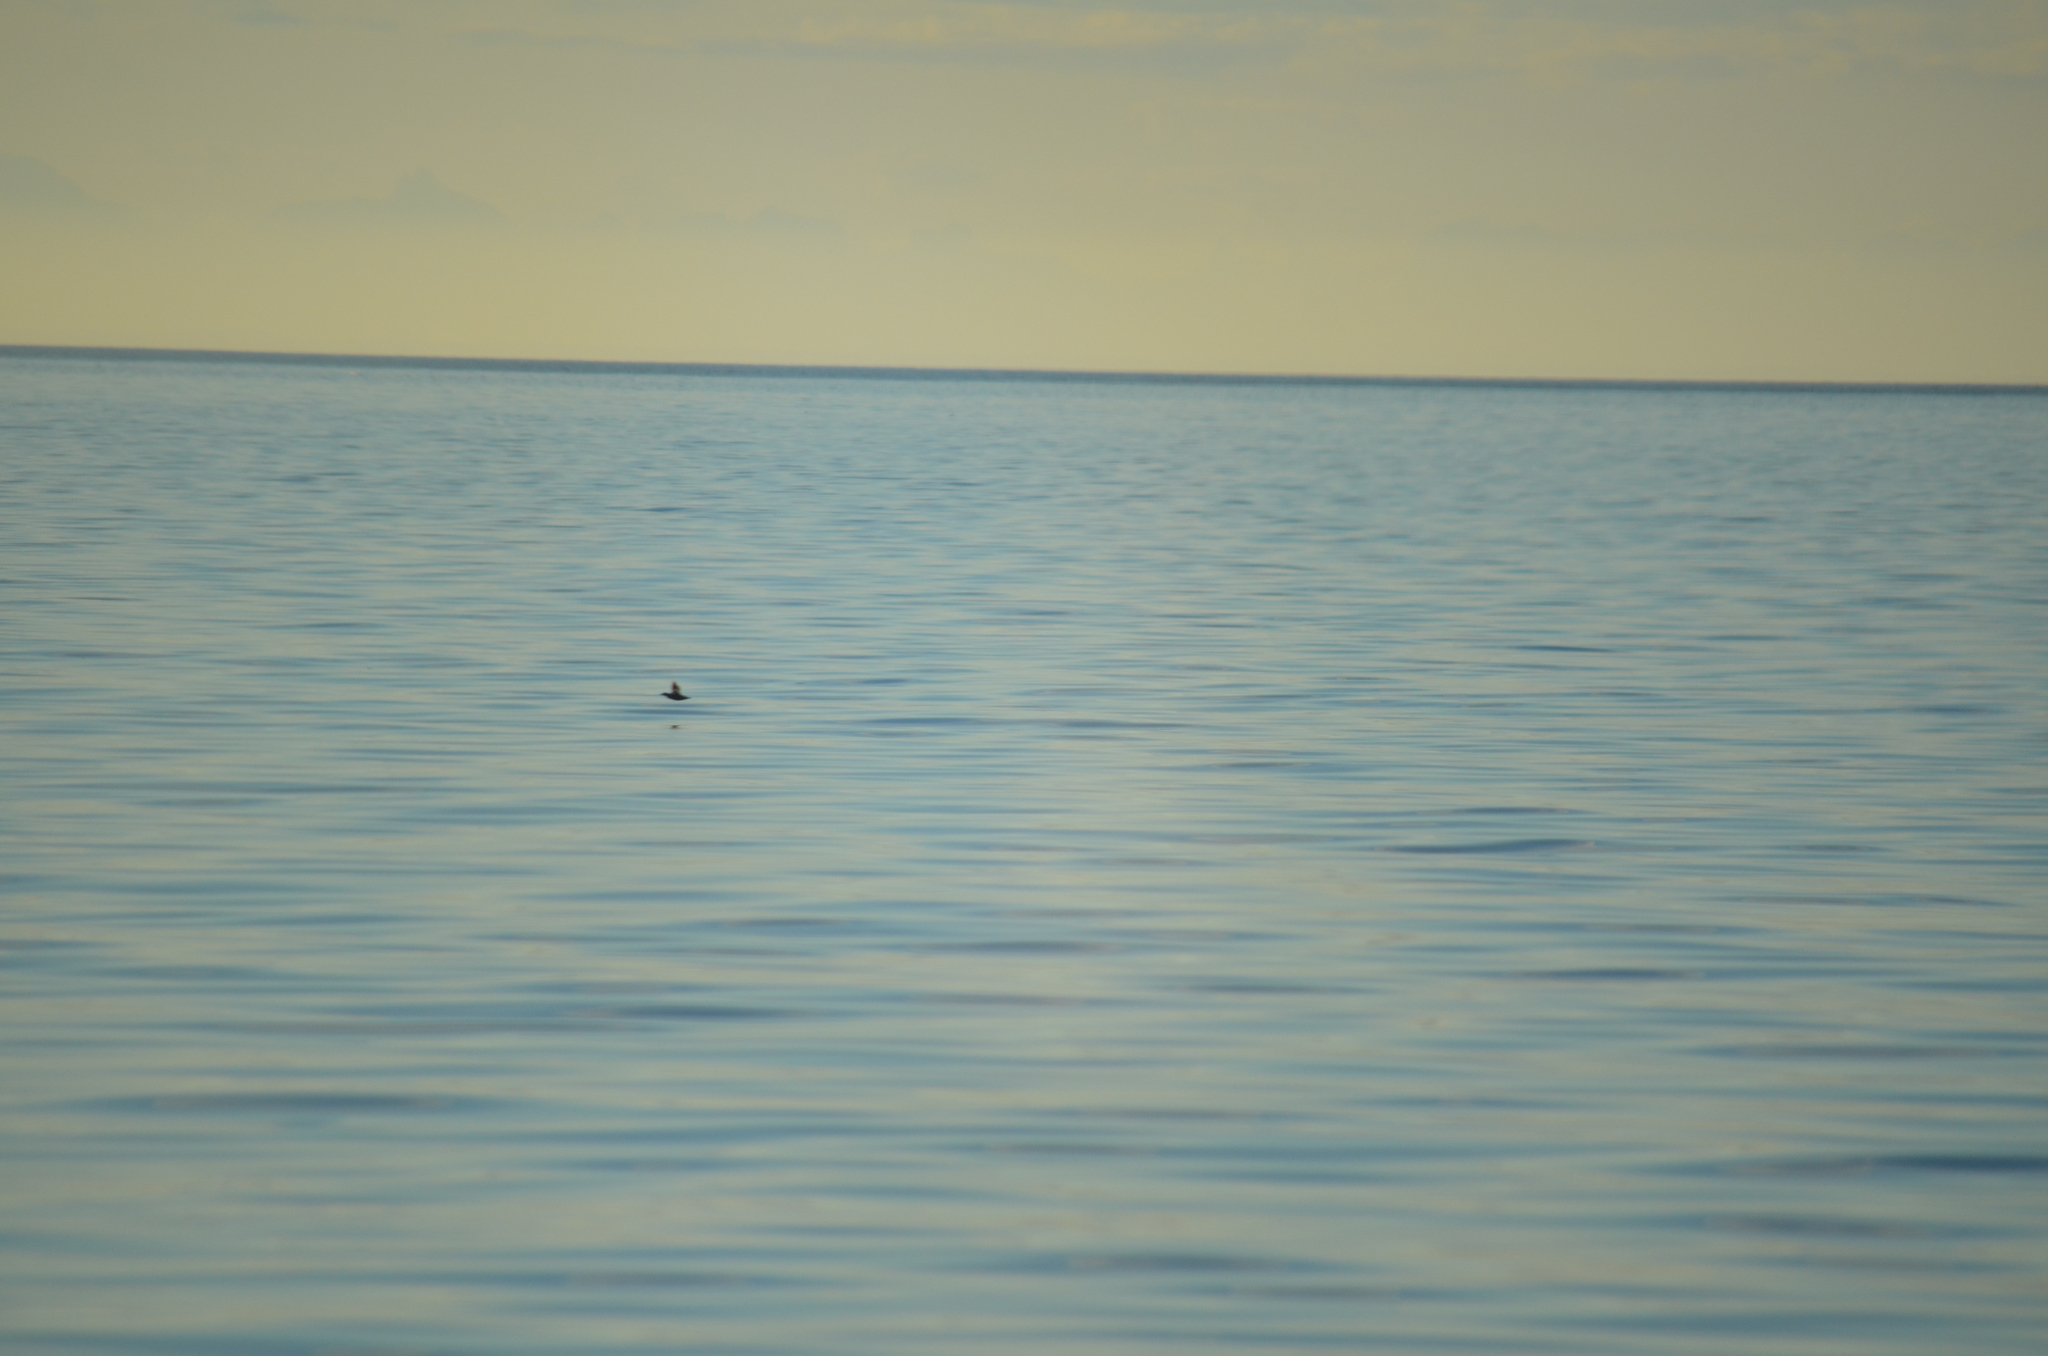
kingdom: Animalia
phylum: Chordata
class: Aves
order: Charadriiformes
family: Alcidae
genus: Cepphus
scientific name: Cepphus columba
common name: Pigeon guillemot
